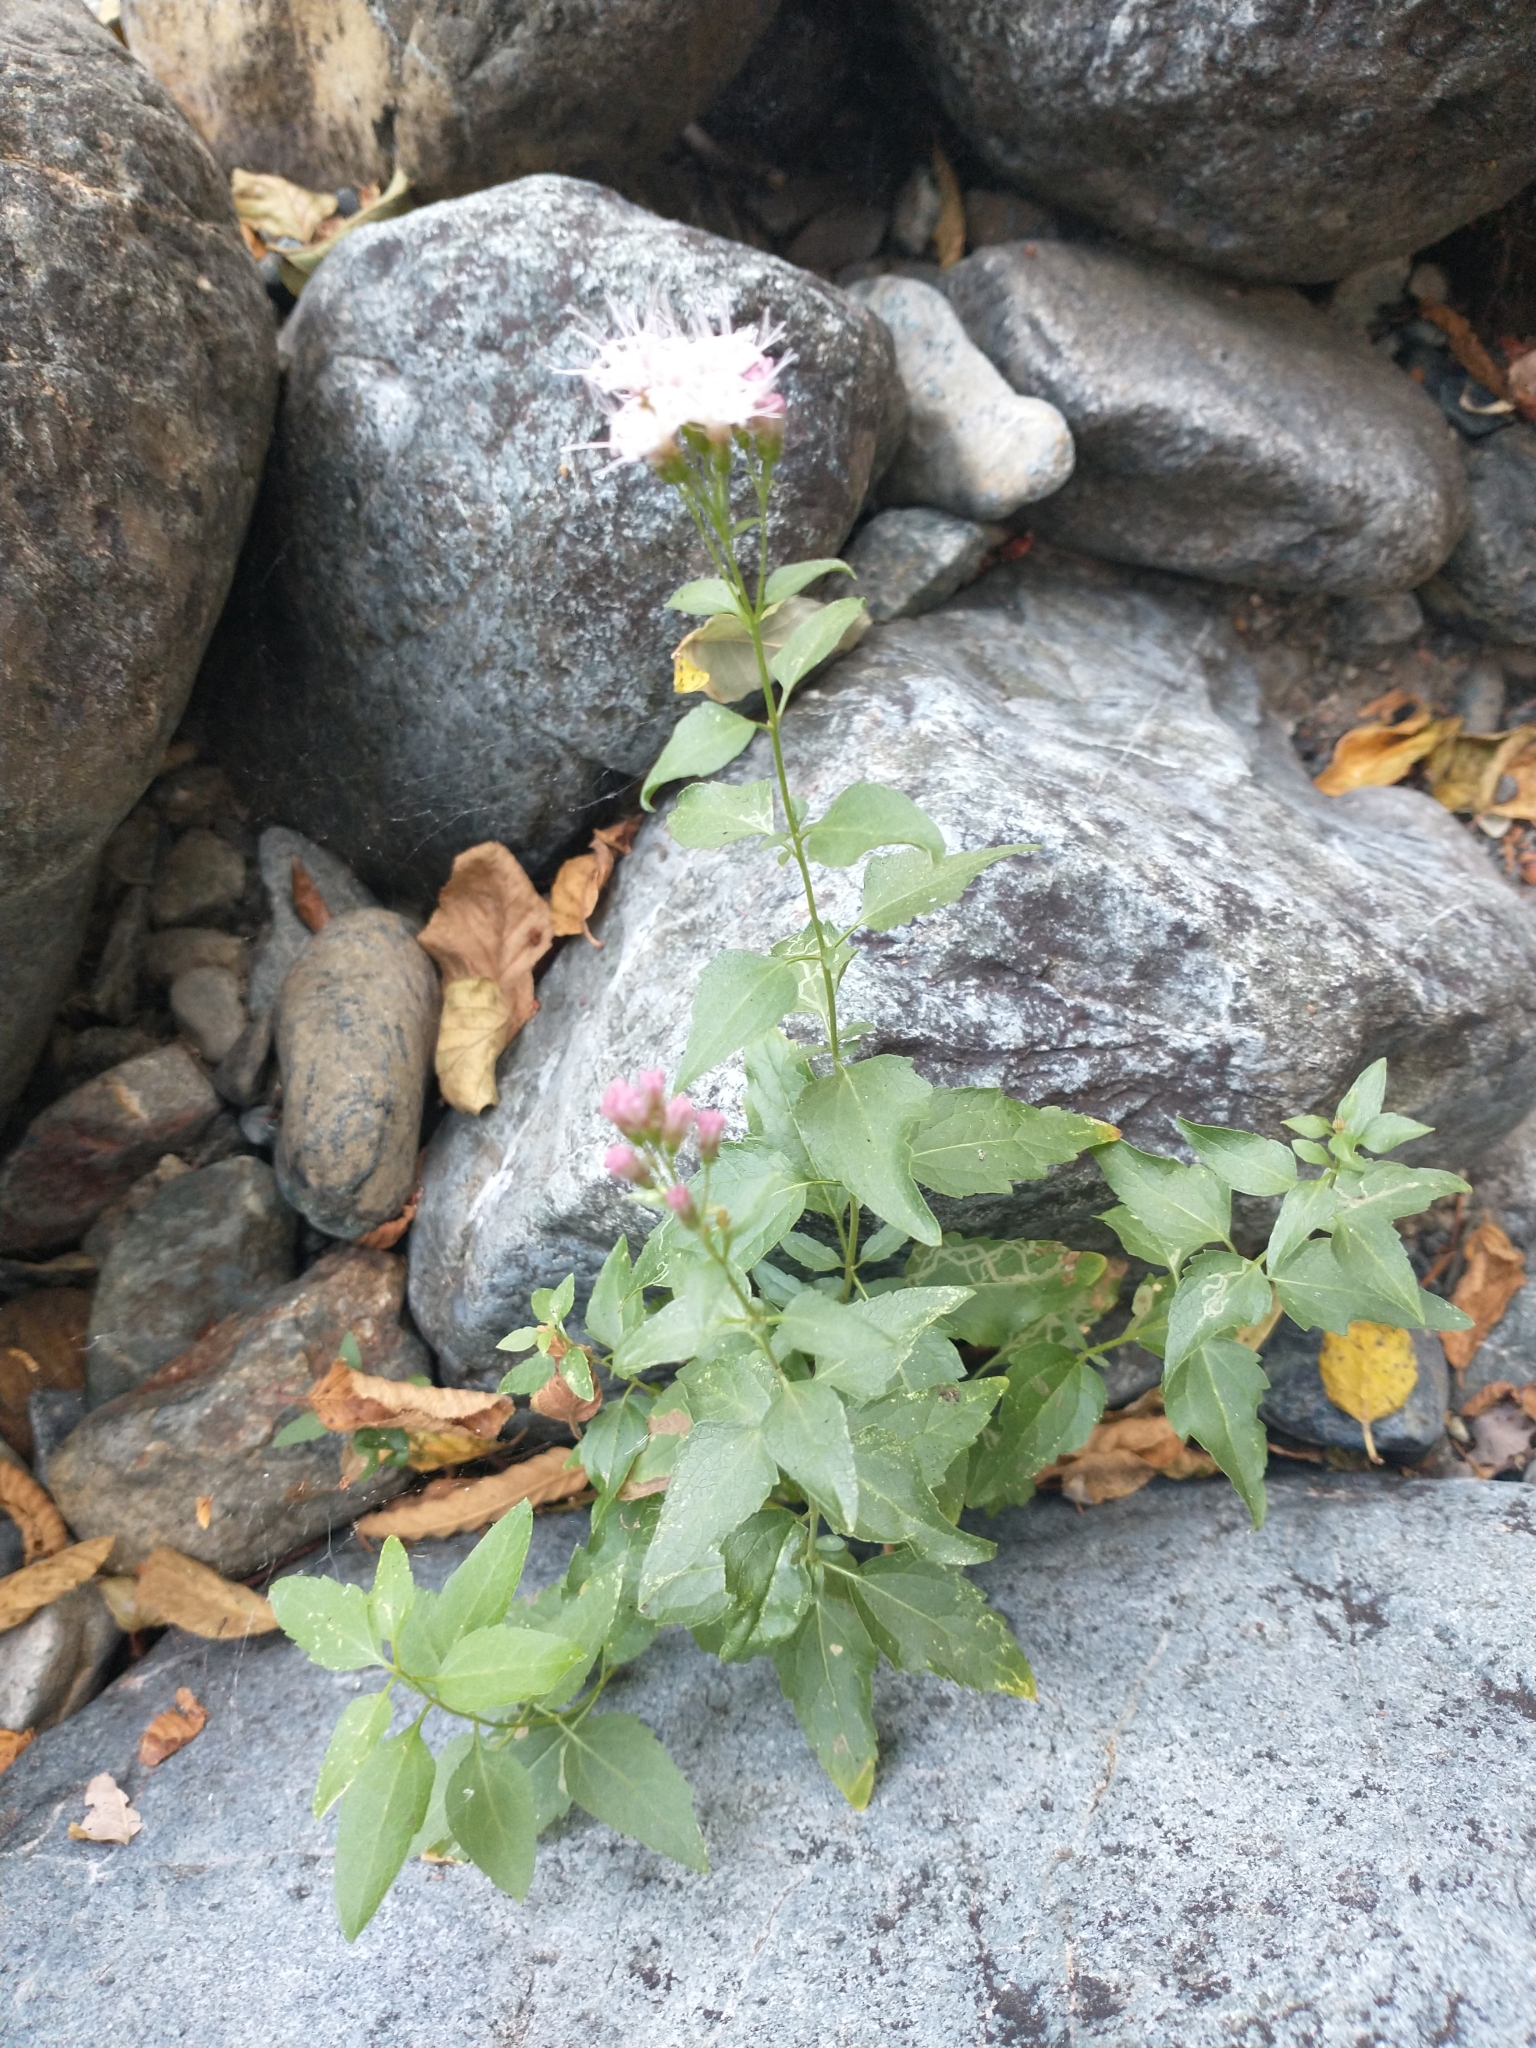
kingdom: Plantae
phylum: Tracheophyta
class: Magnoliopsida
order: Asterales
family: Asteraceae
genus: Ageratina
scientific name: Ageratina occidentalis
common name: Western snakeroot
